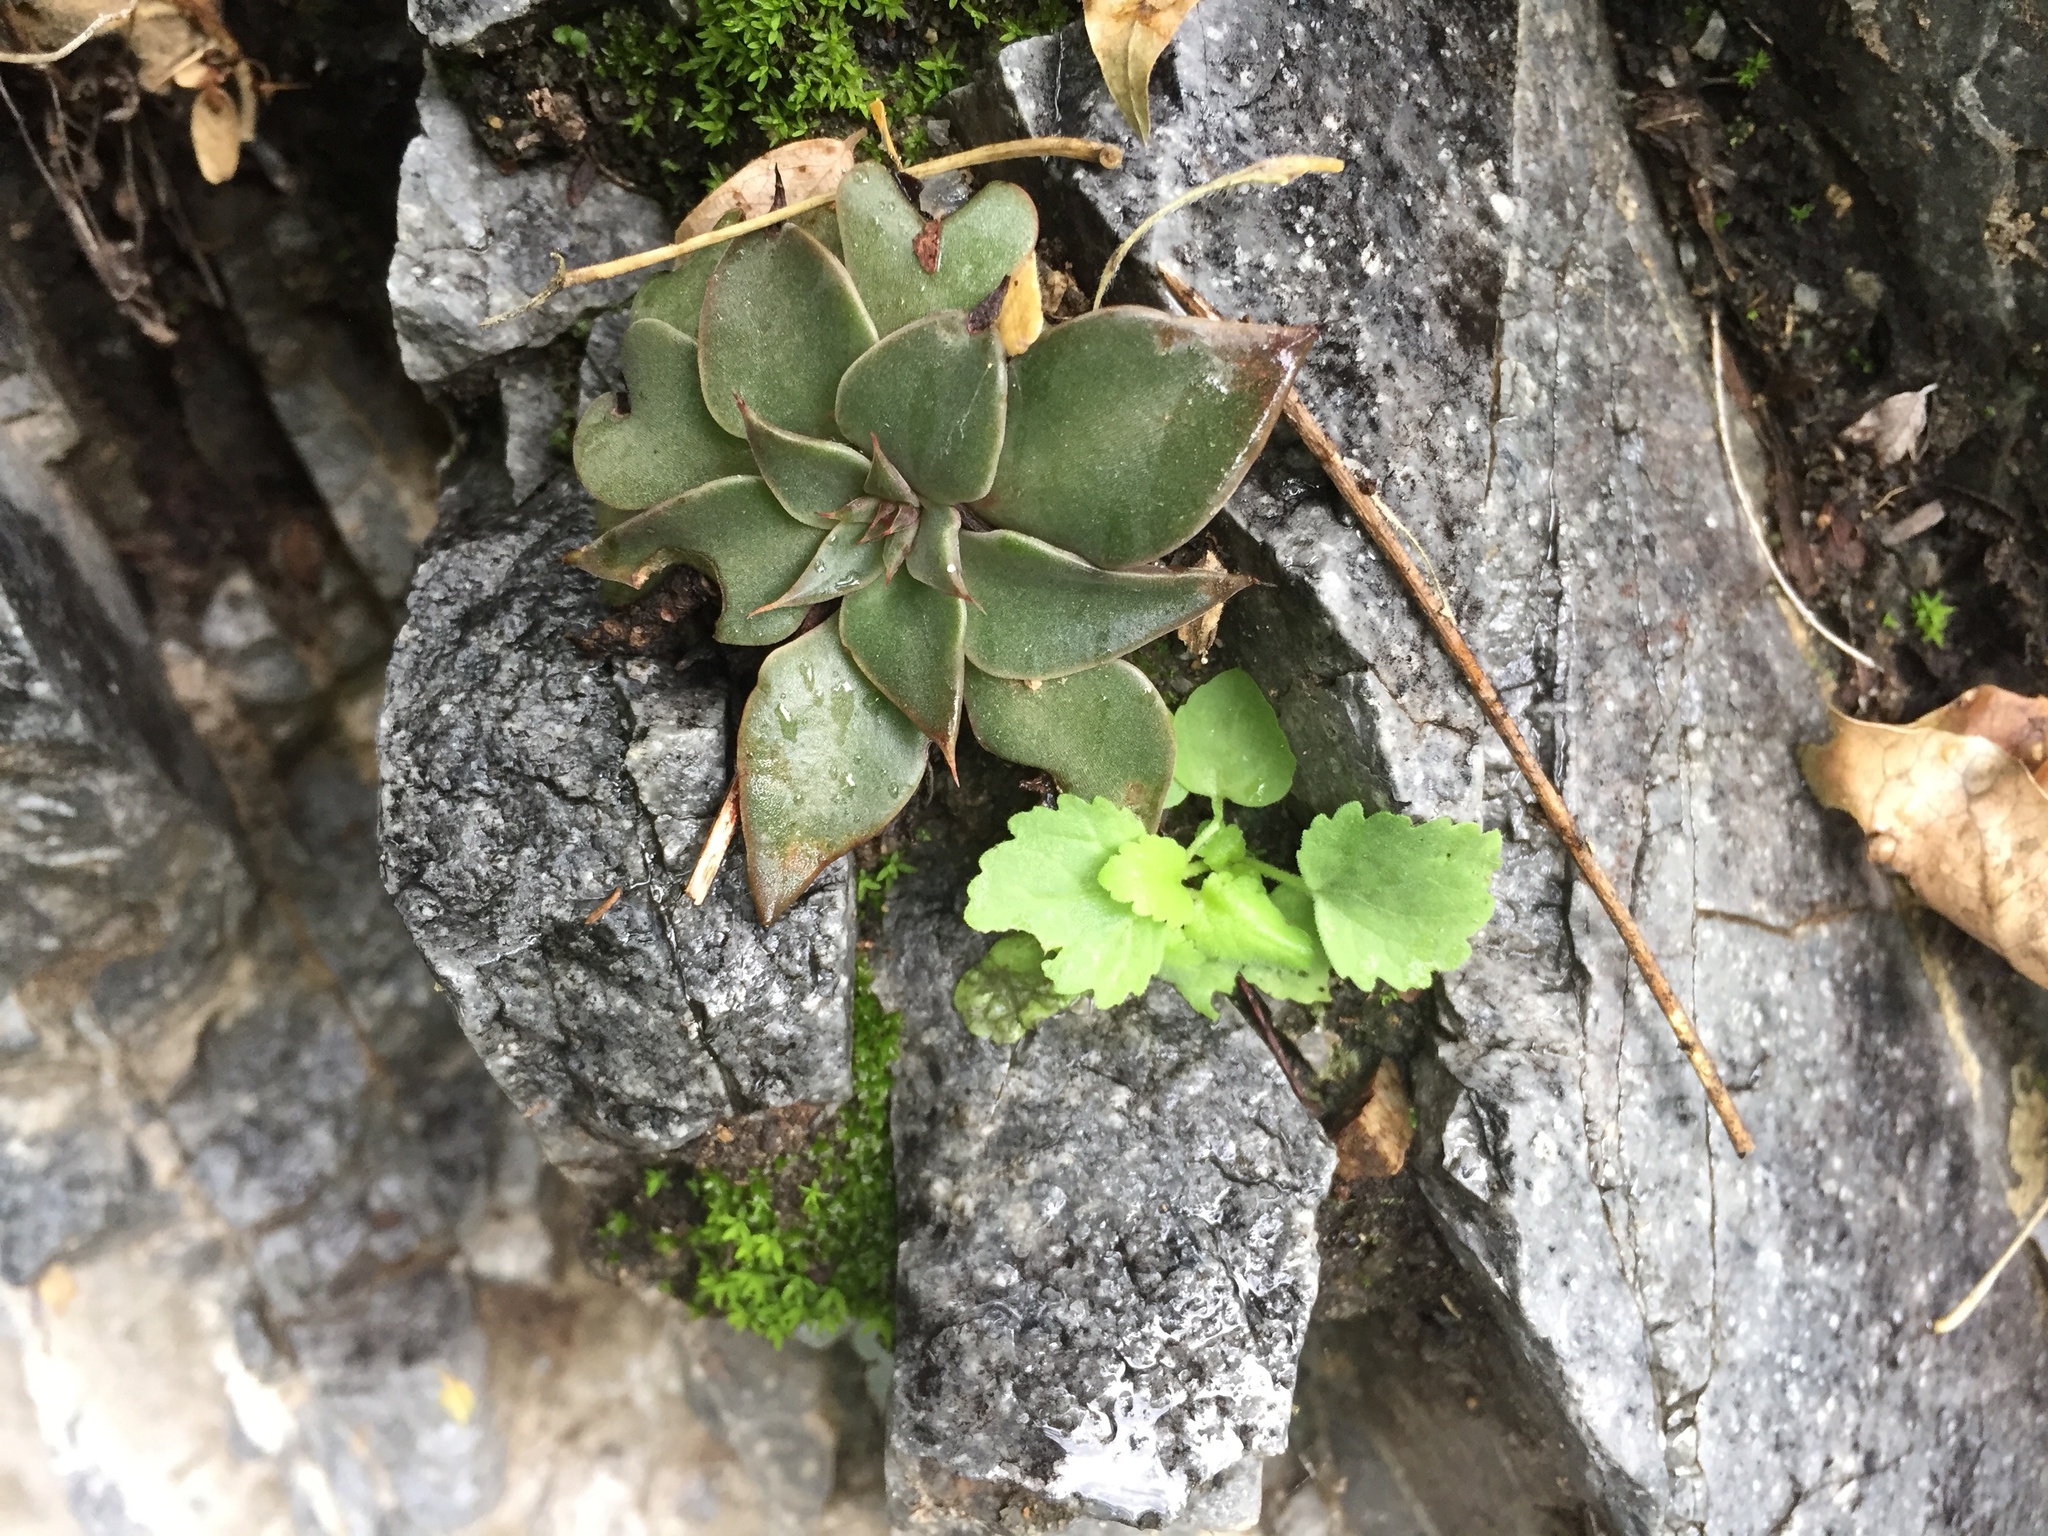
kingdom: Plantae
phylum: Tracheophyta
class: Magnoliopsida
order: Saxifragales
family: Crassulaceae
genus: Graptopetalum
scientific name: Graptopetalum bartramii
